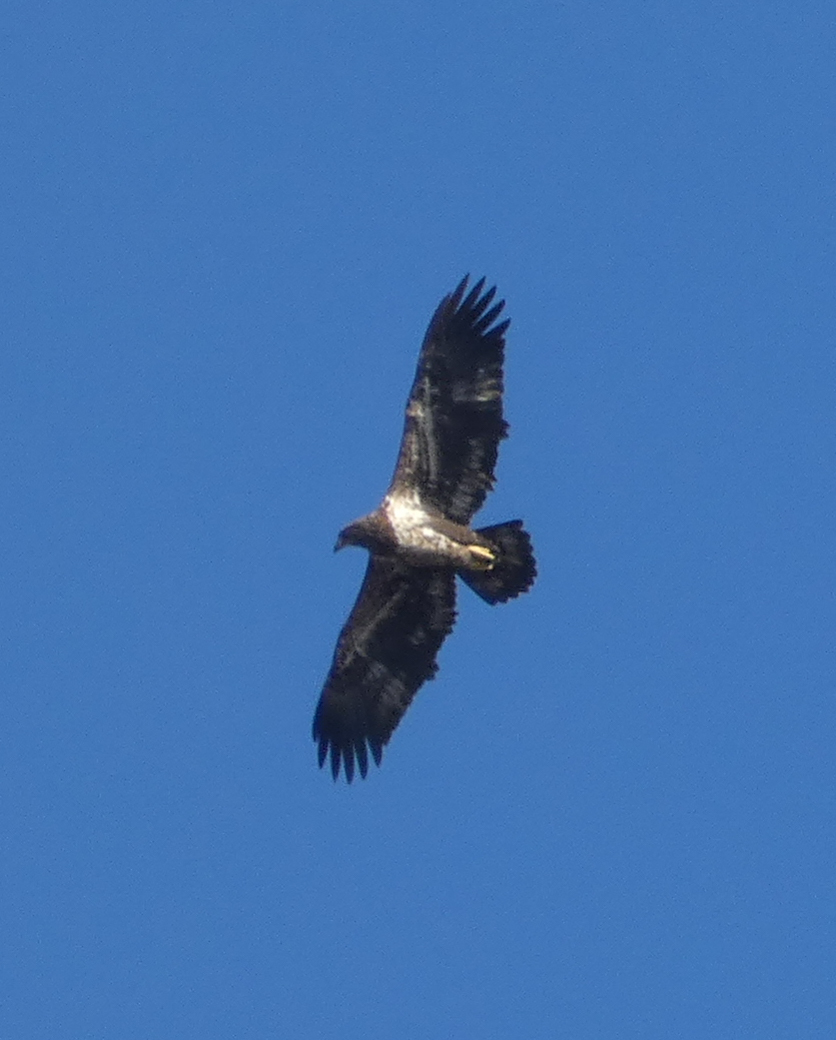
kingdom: Animalia
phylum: Chordata
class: Aves
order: Accipitriformes
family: Accipitridae
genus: Haliaeetus
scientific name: Haliaeetus leucocephalus
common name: Bald eagle
